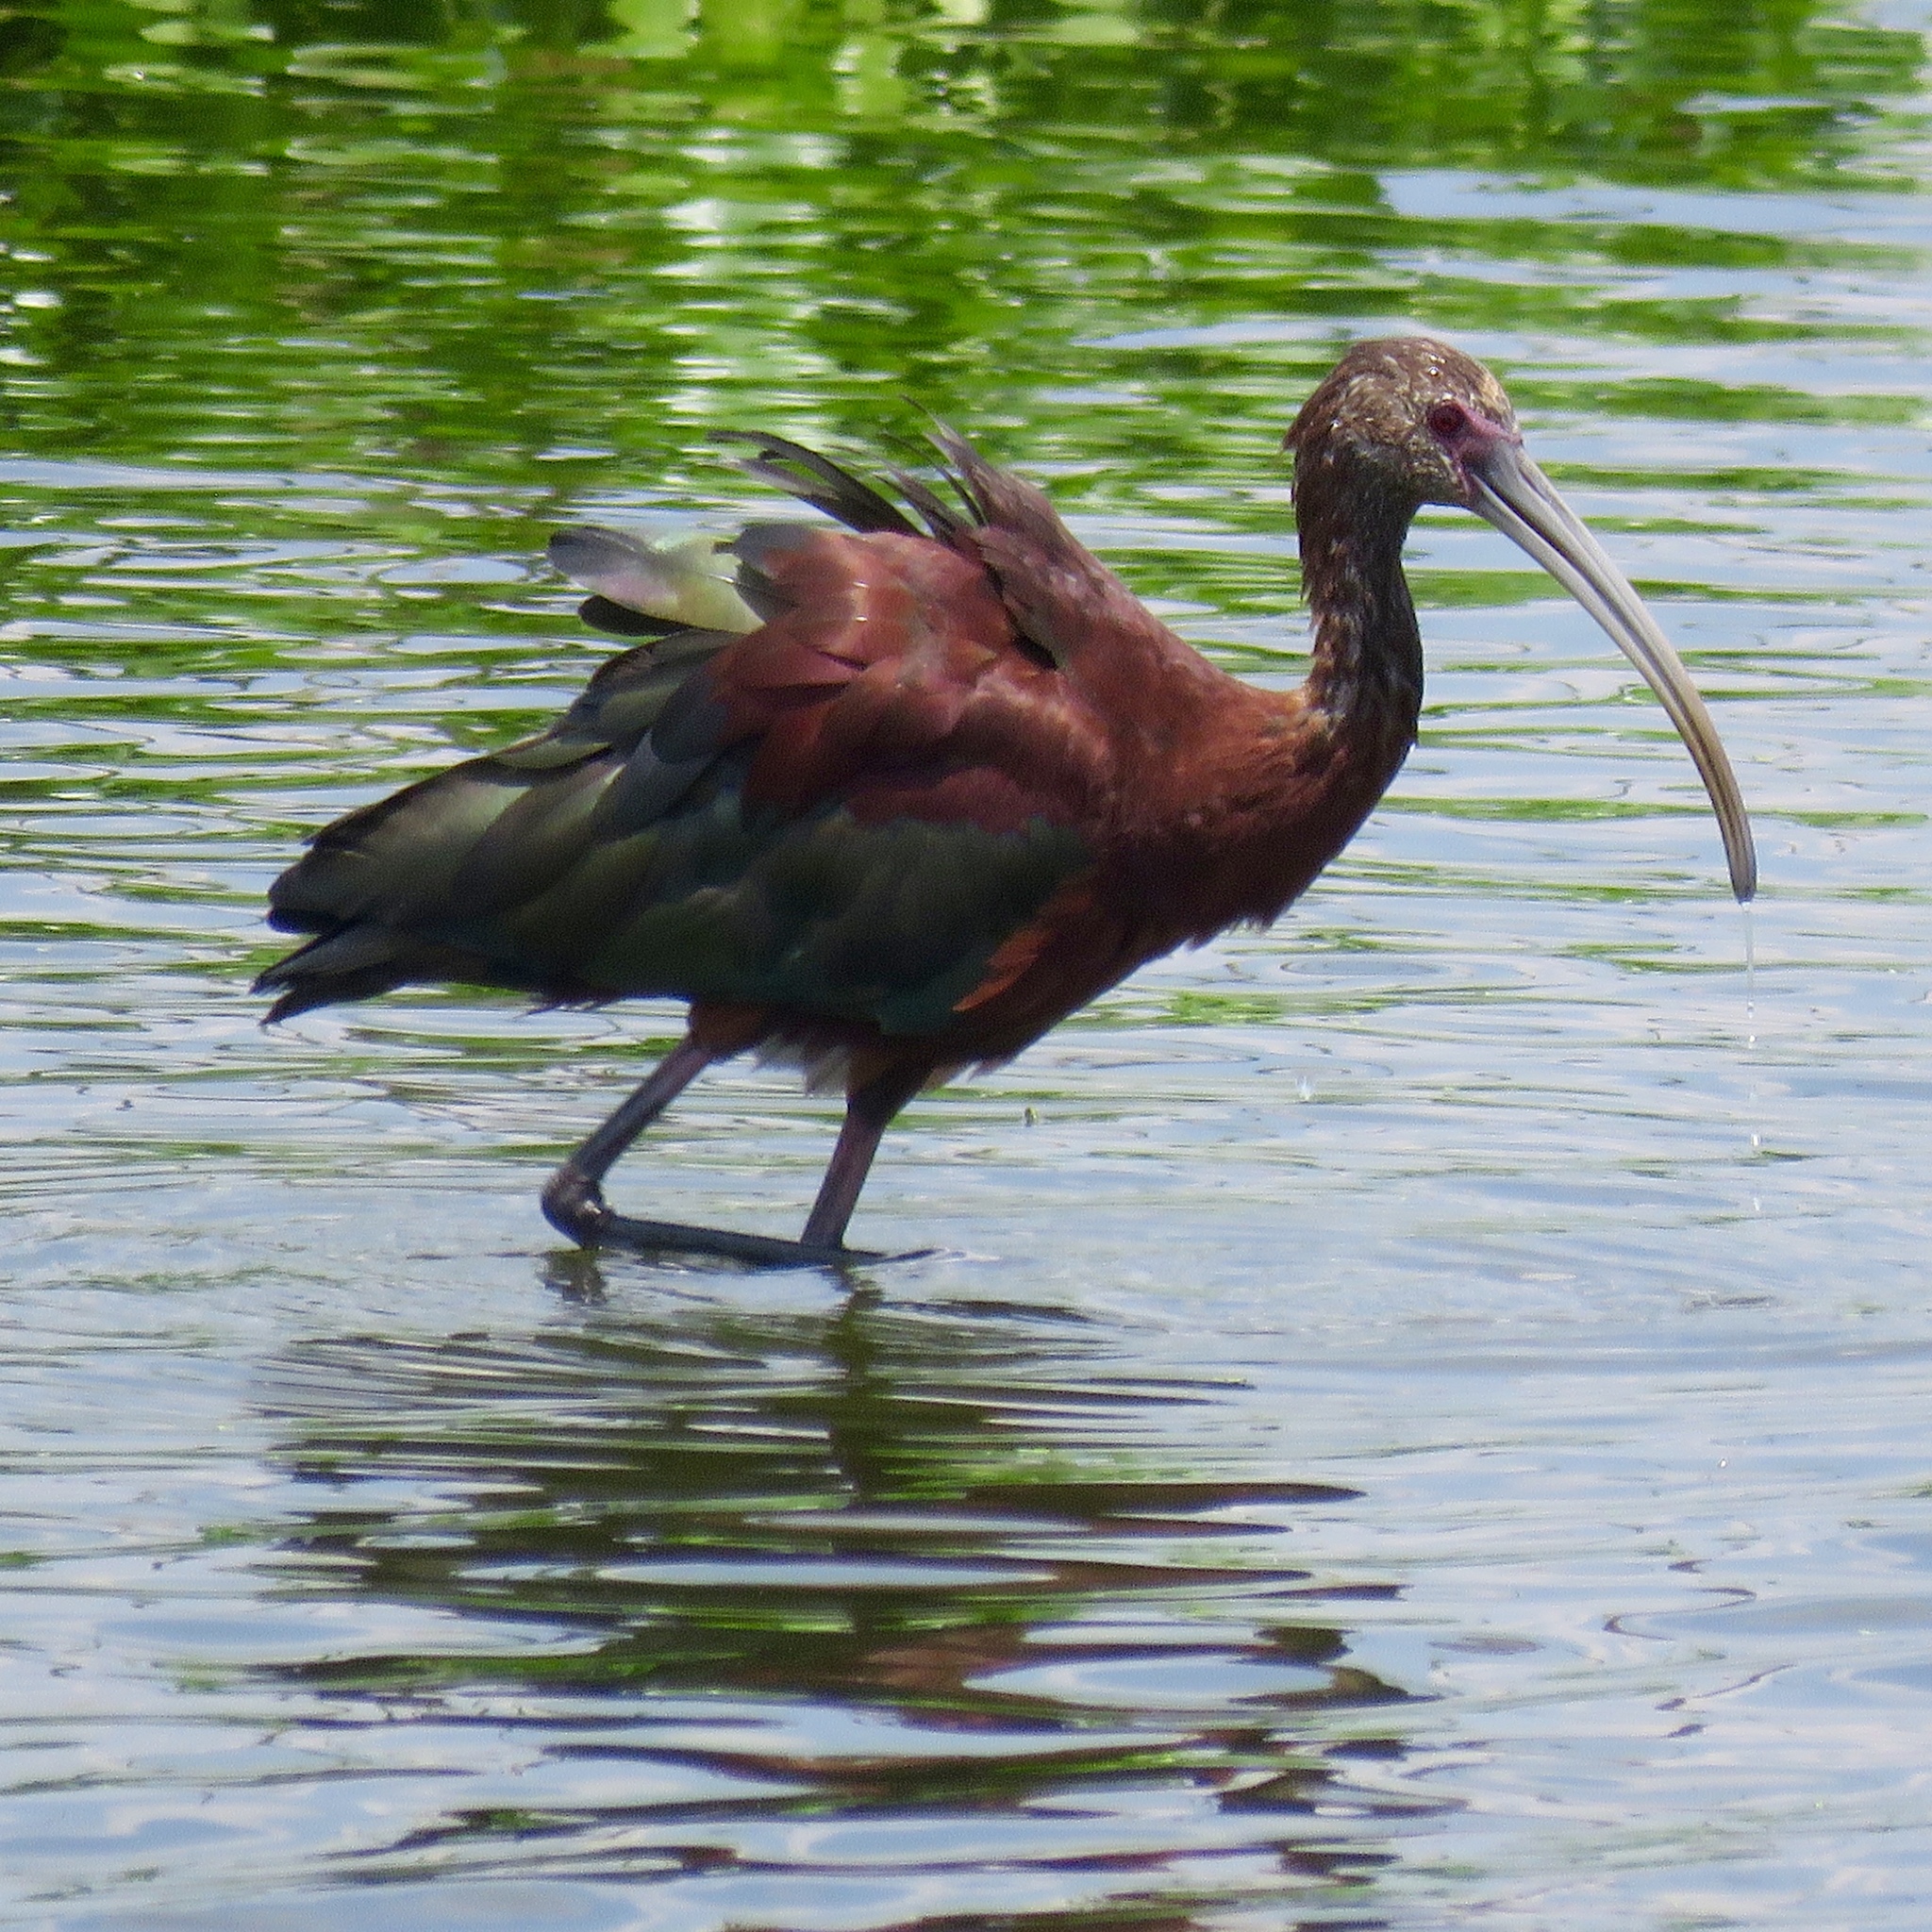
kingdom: Animalia
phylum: Chordata
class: Aves
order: Pelecaniformes
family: Threskiornithidae
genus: Plegadis
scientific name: Plegadis chihi
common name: White-faced ibis
